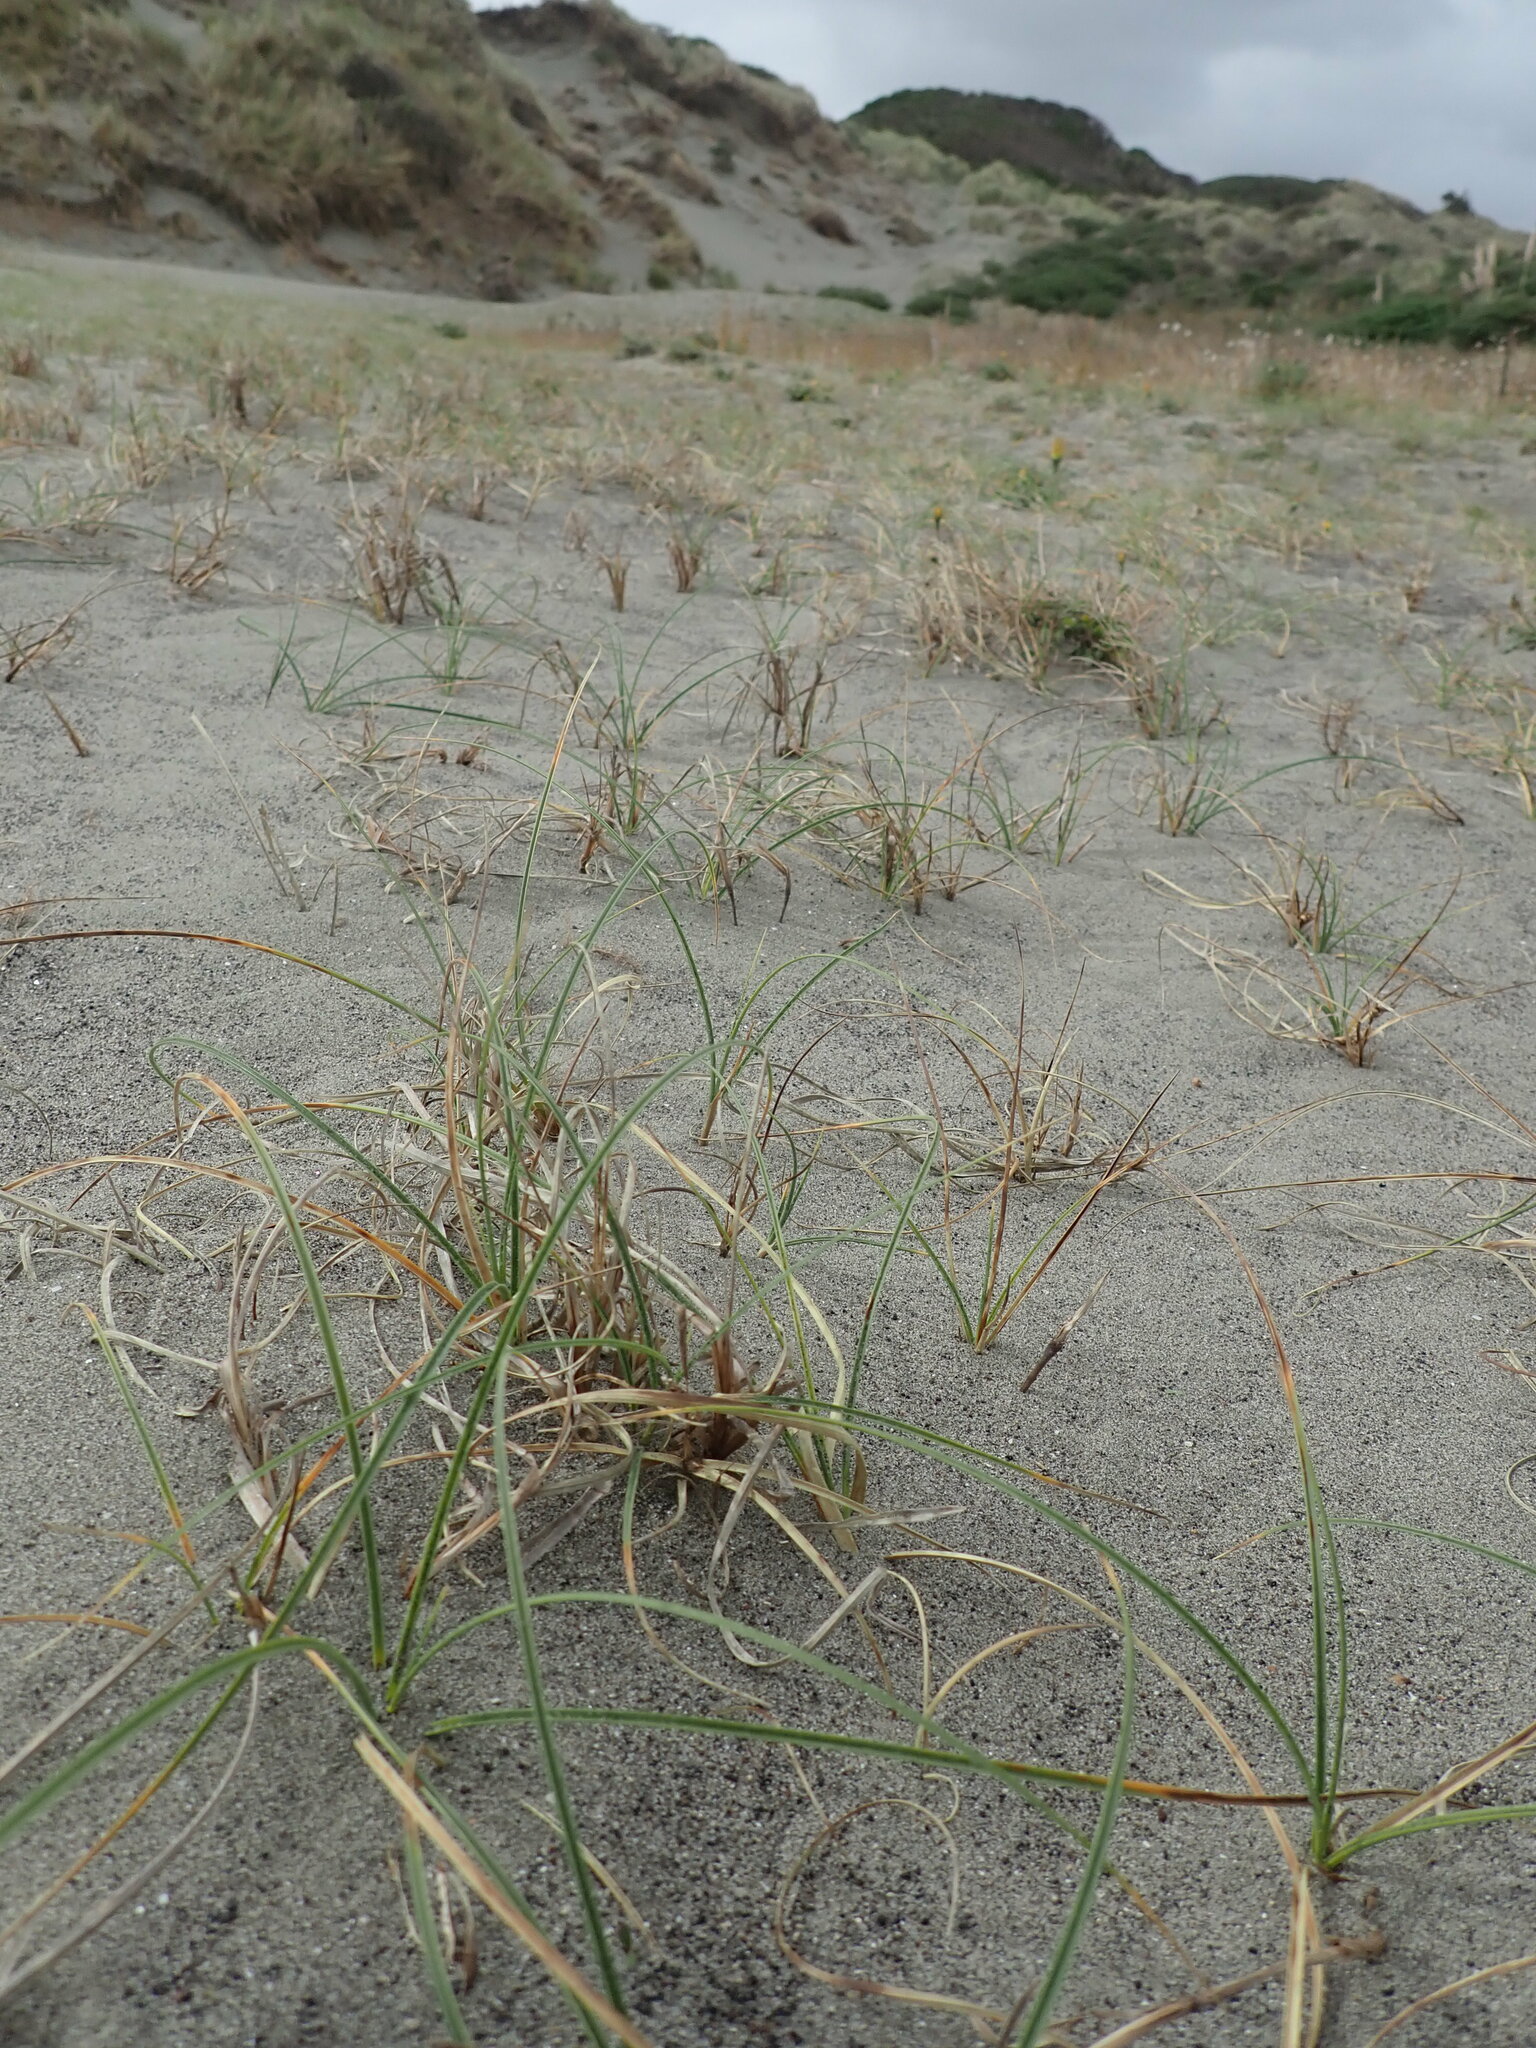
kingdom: Plantae
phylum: Tracheophyta
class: Liliopsida
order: Poales
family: Cyperaceae
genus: Carex
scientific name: Carex pumila
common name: Dwarf sedge
